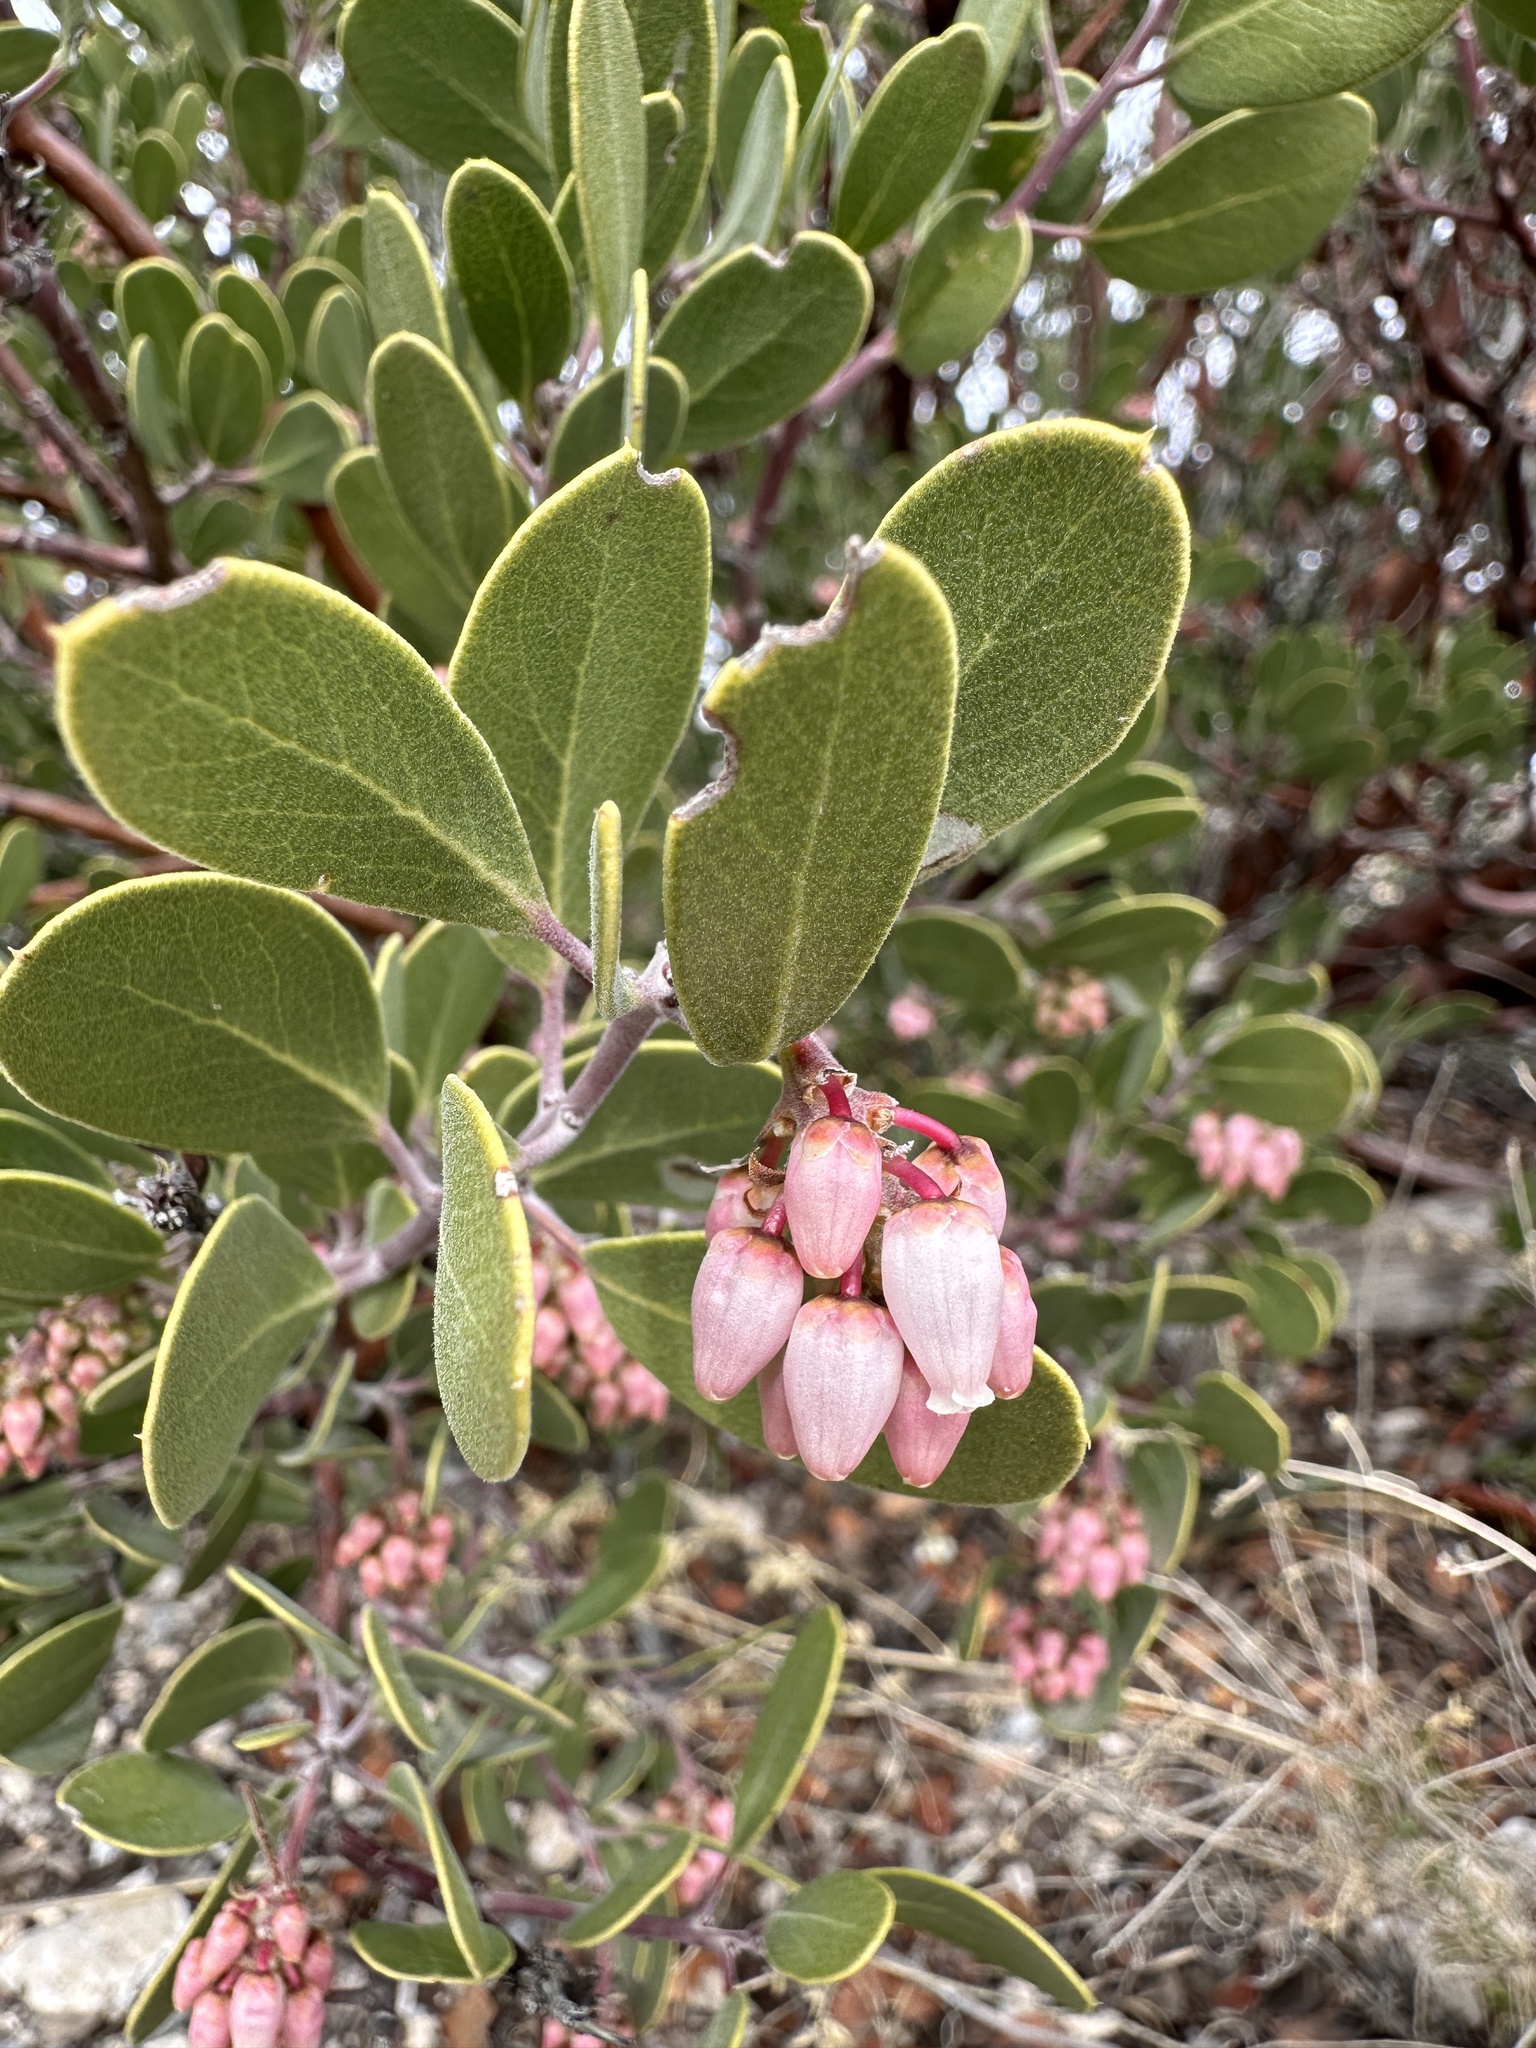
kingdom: Plantae
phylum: Tracheophyta
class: Magnoliopsida
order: Ericales
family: Ericaceae
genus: Arctostaphylos
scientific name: Arctostaphylos pungens
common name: Mexican manzanita
